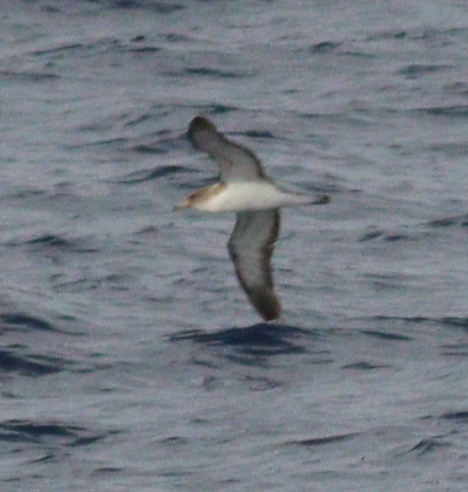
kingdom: Animalia
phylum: Chordata
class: Aves
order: Procellariiformes
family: Procellariidae
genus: Calonectris
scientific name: Calonectris diomedea
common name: Cory's shearwater
